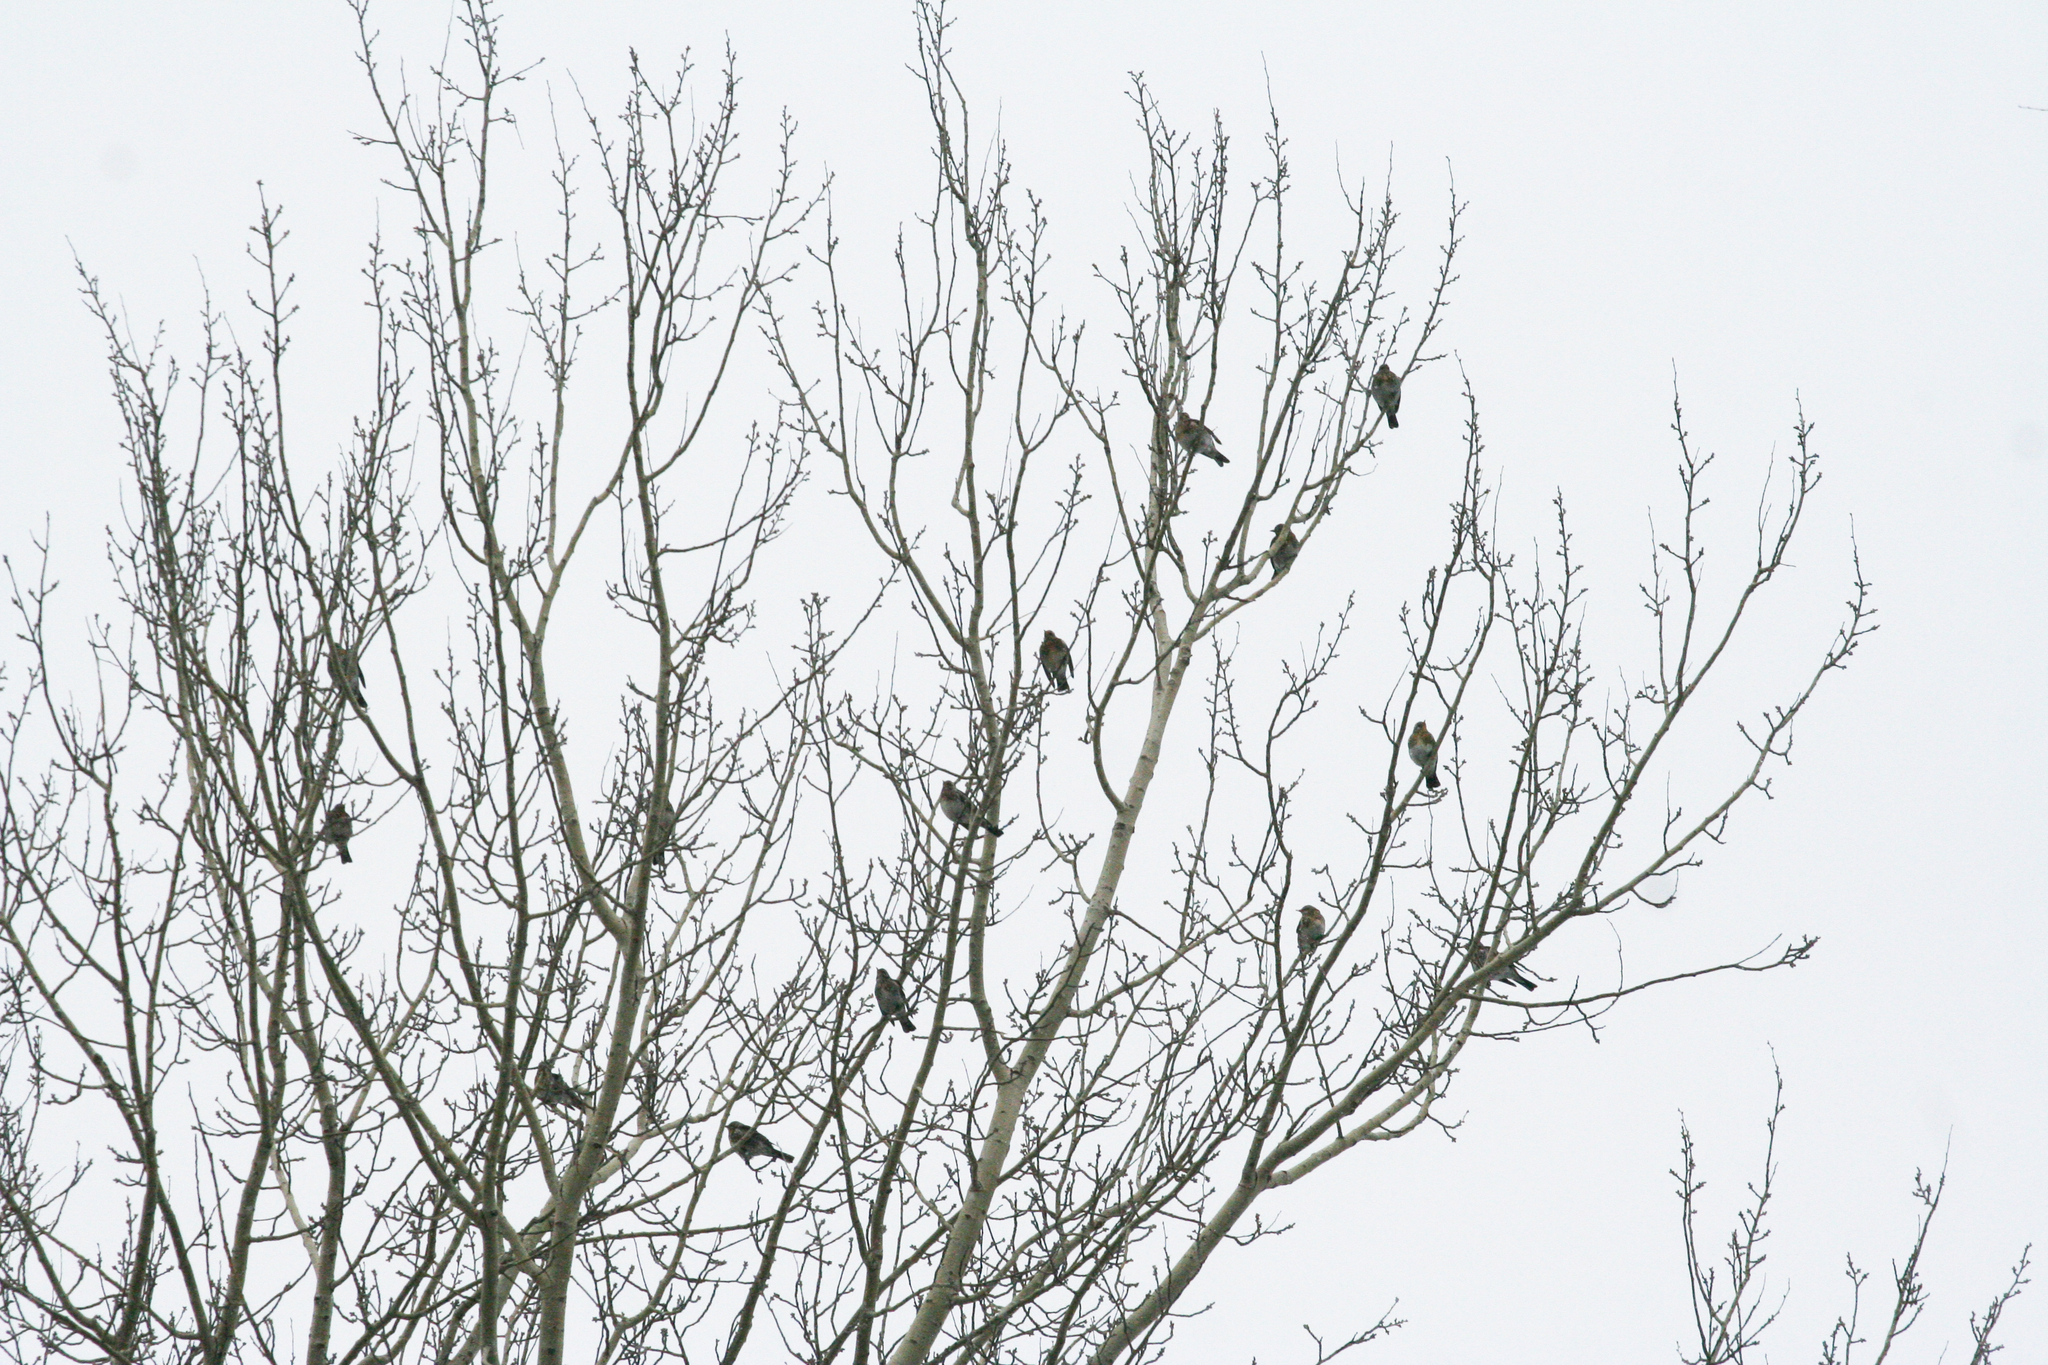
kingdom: Animalia
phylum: Chordata
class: Aves
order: Passeriformes
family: Turdidae
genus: Turdus
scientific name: Turdus pilaris
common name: Fieldfare
